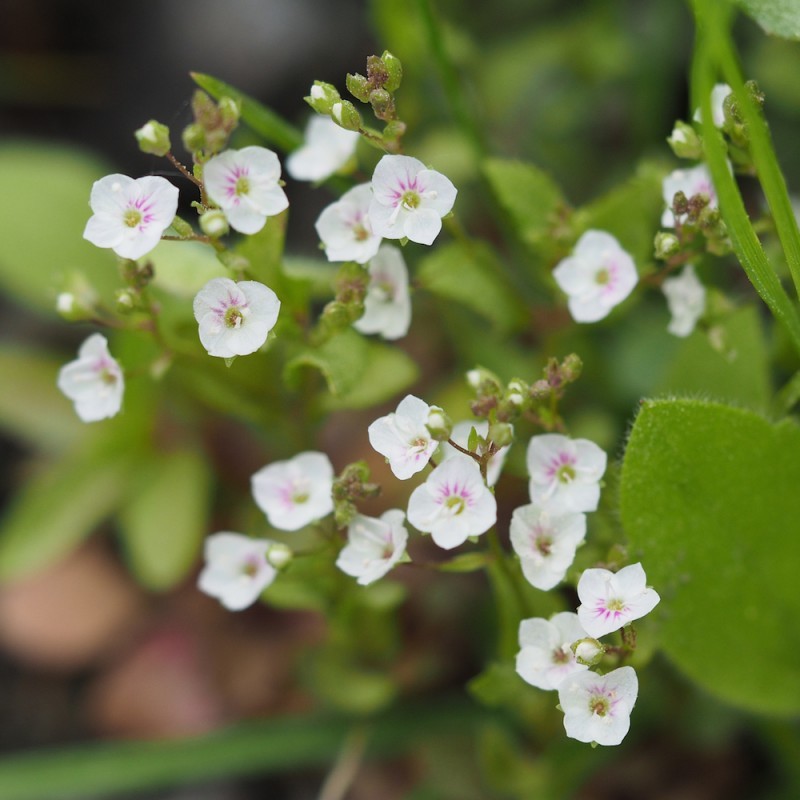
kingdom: Plantae
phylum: Tracheophyta
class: Magnoliopsida
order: Lamiales
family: Plantaginaceae
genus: Veronica
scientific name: Veronica scardica
